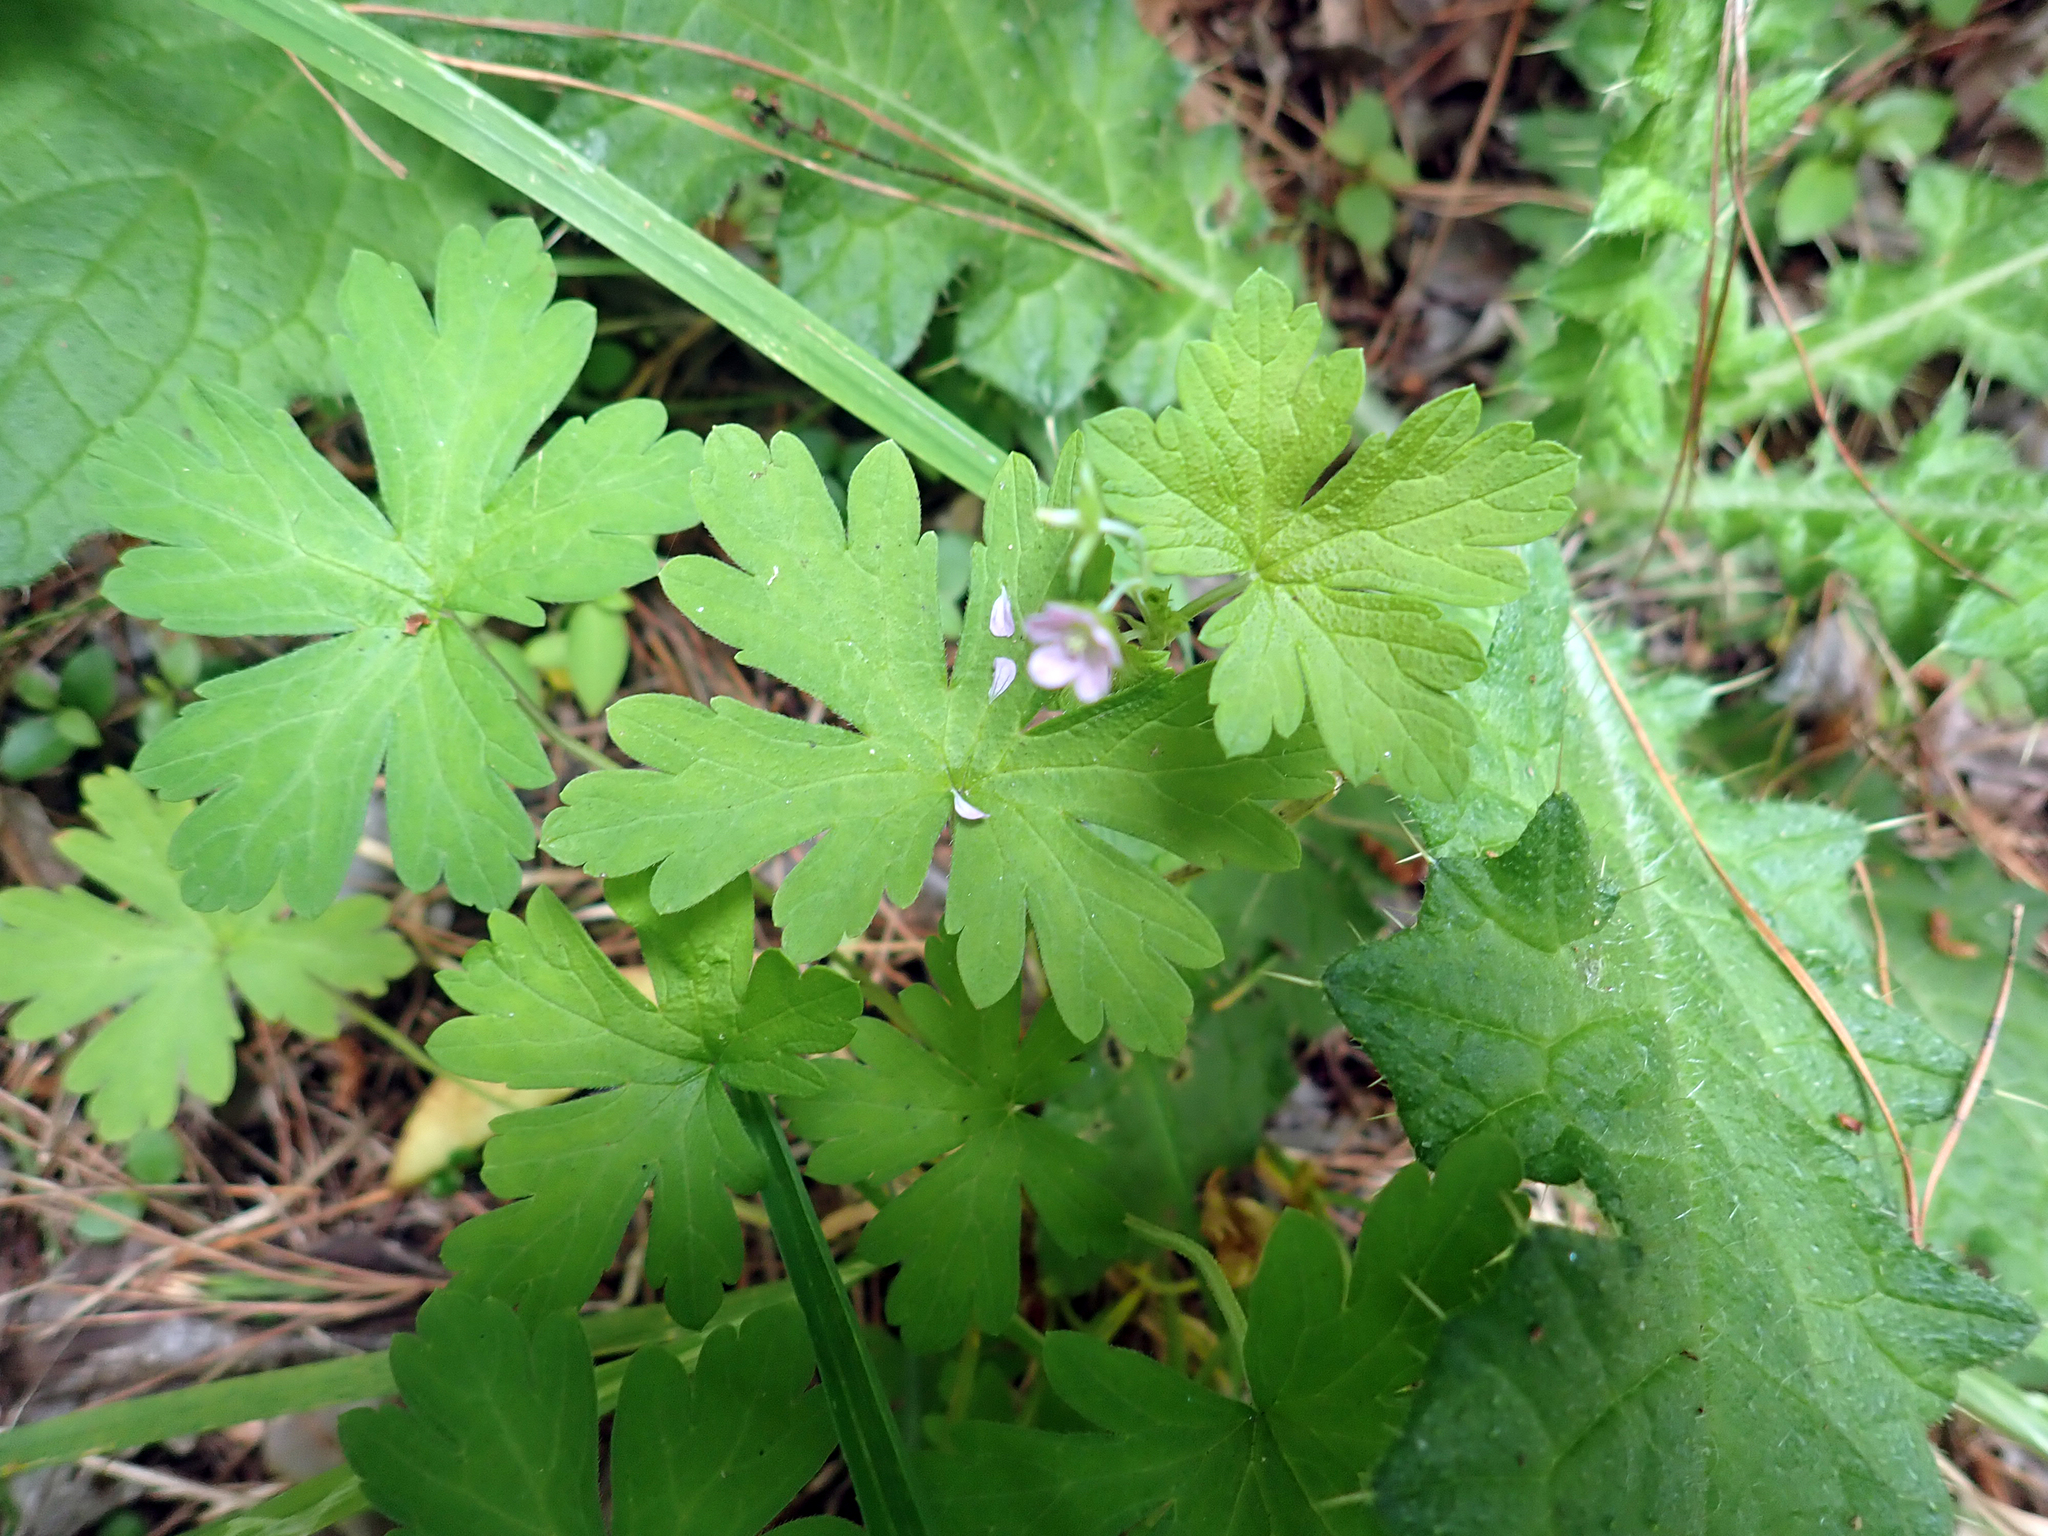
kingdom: Plantae
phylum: Tracheophyta
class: Magnoliopsida
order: Geraniales
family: Geraniaceae
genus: Geranium
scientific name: Geranium homeanum
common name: Australasian geranium
